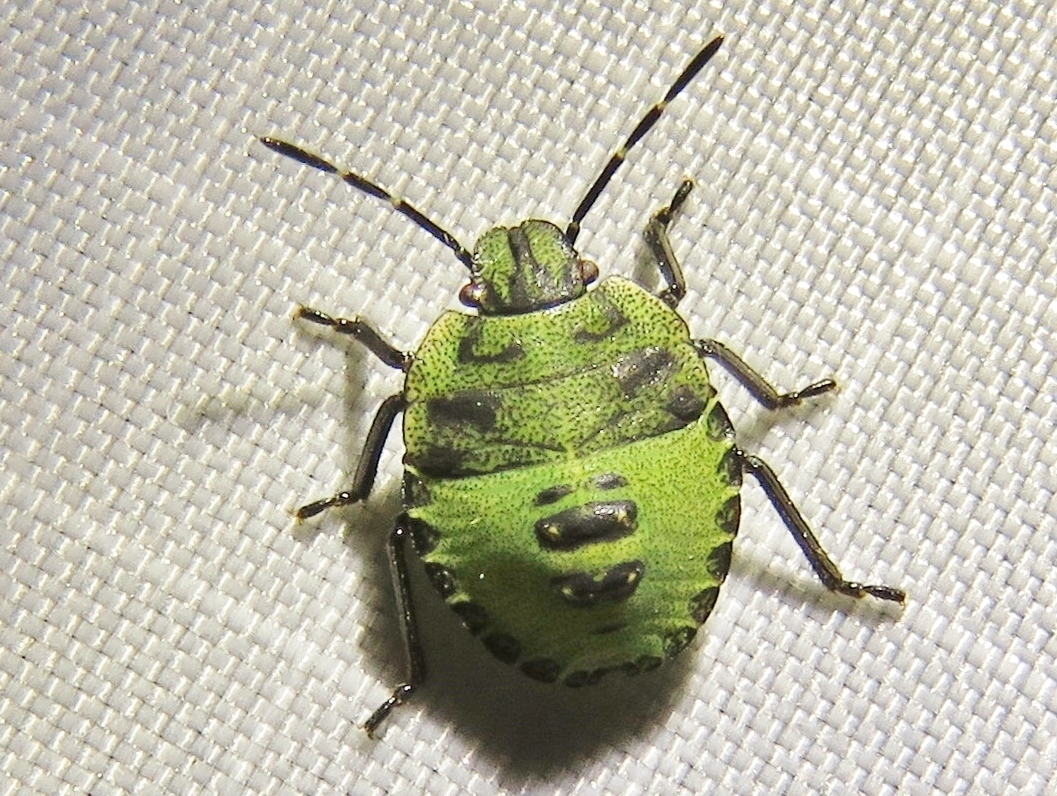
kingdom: Animalia
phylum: Arthropoda
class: Insecta
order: Hemiptera
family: Pentatomidae
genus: Palomena
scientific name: Palomena prasina
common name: Green shieldbug
